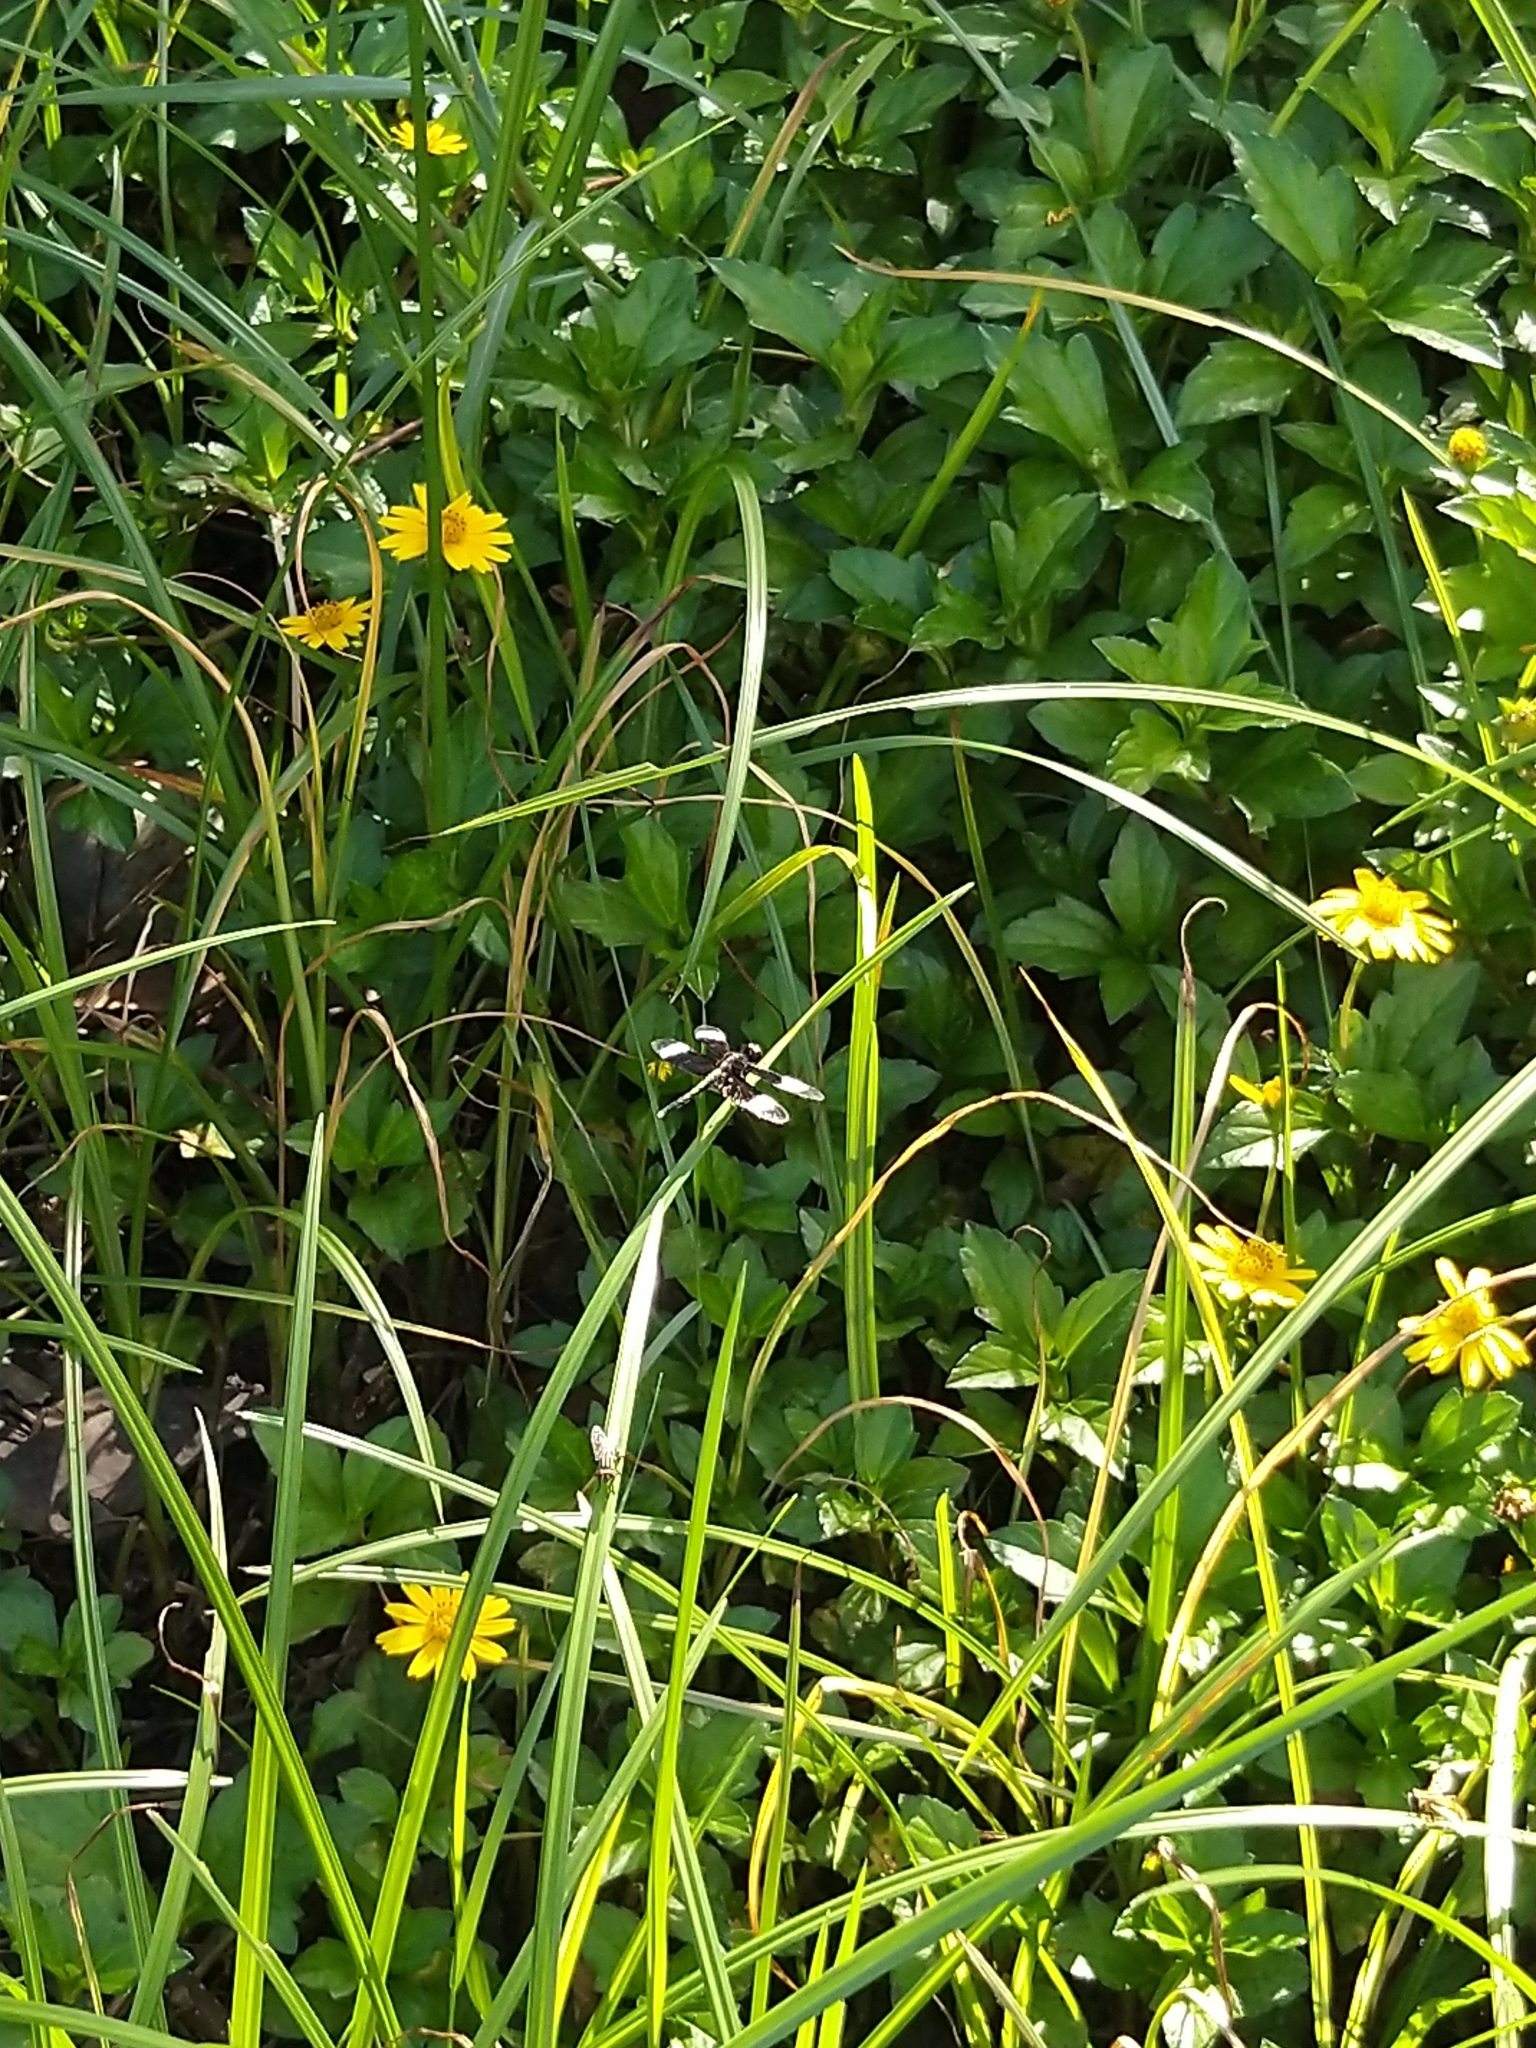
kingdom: Animalia
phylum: Arthropoda
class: Insecta
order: Odonata
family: Libellulidae
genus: Neurothemis
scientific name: Neurothemis tullia
